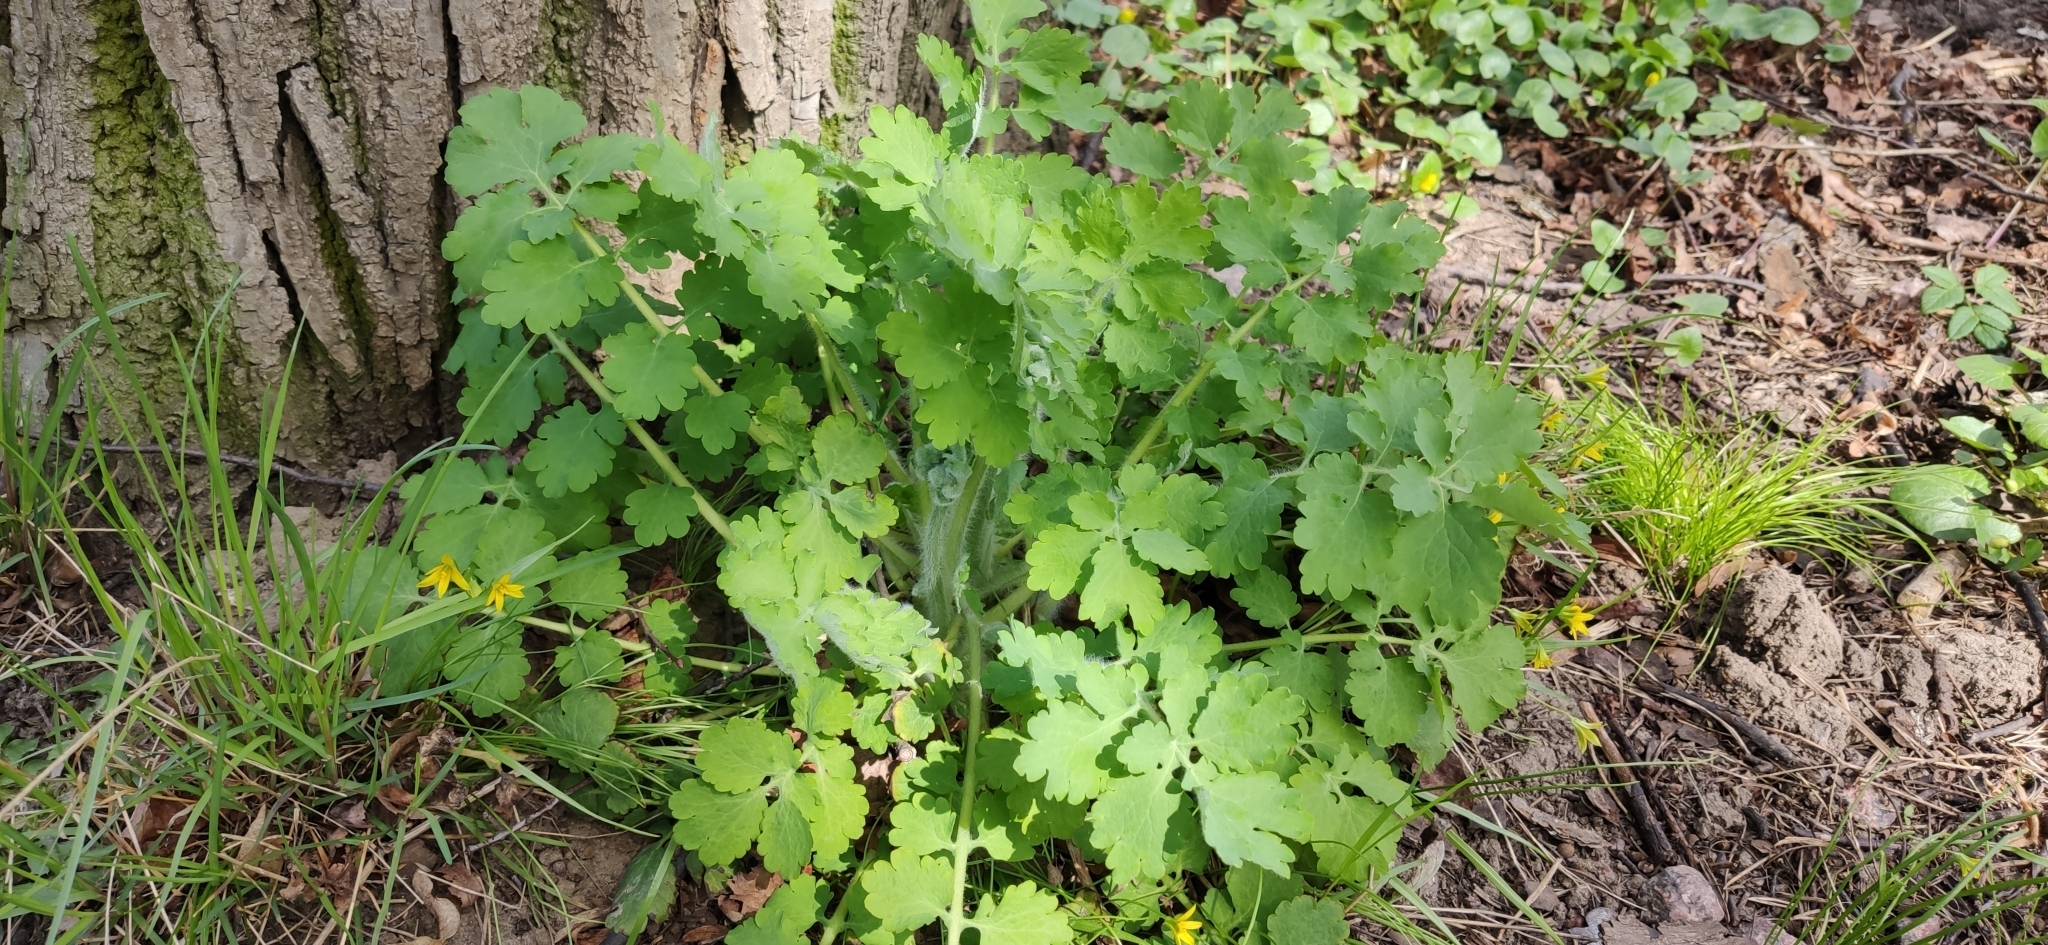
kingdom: Plantae
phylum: Tracheophyta
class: Magnoliopsida
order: Ranunculales
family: Papaveraceae
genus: Chelidonium
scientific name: Chelidonium majus
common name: Greater celandine
